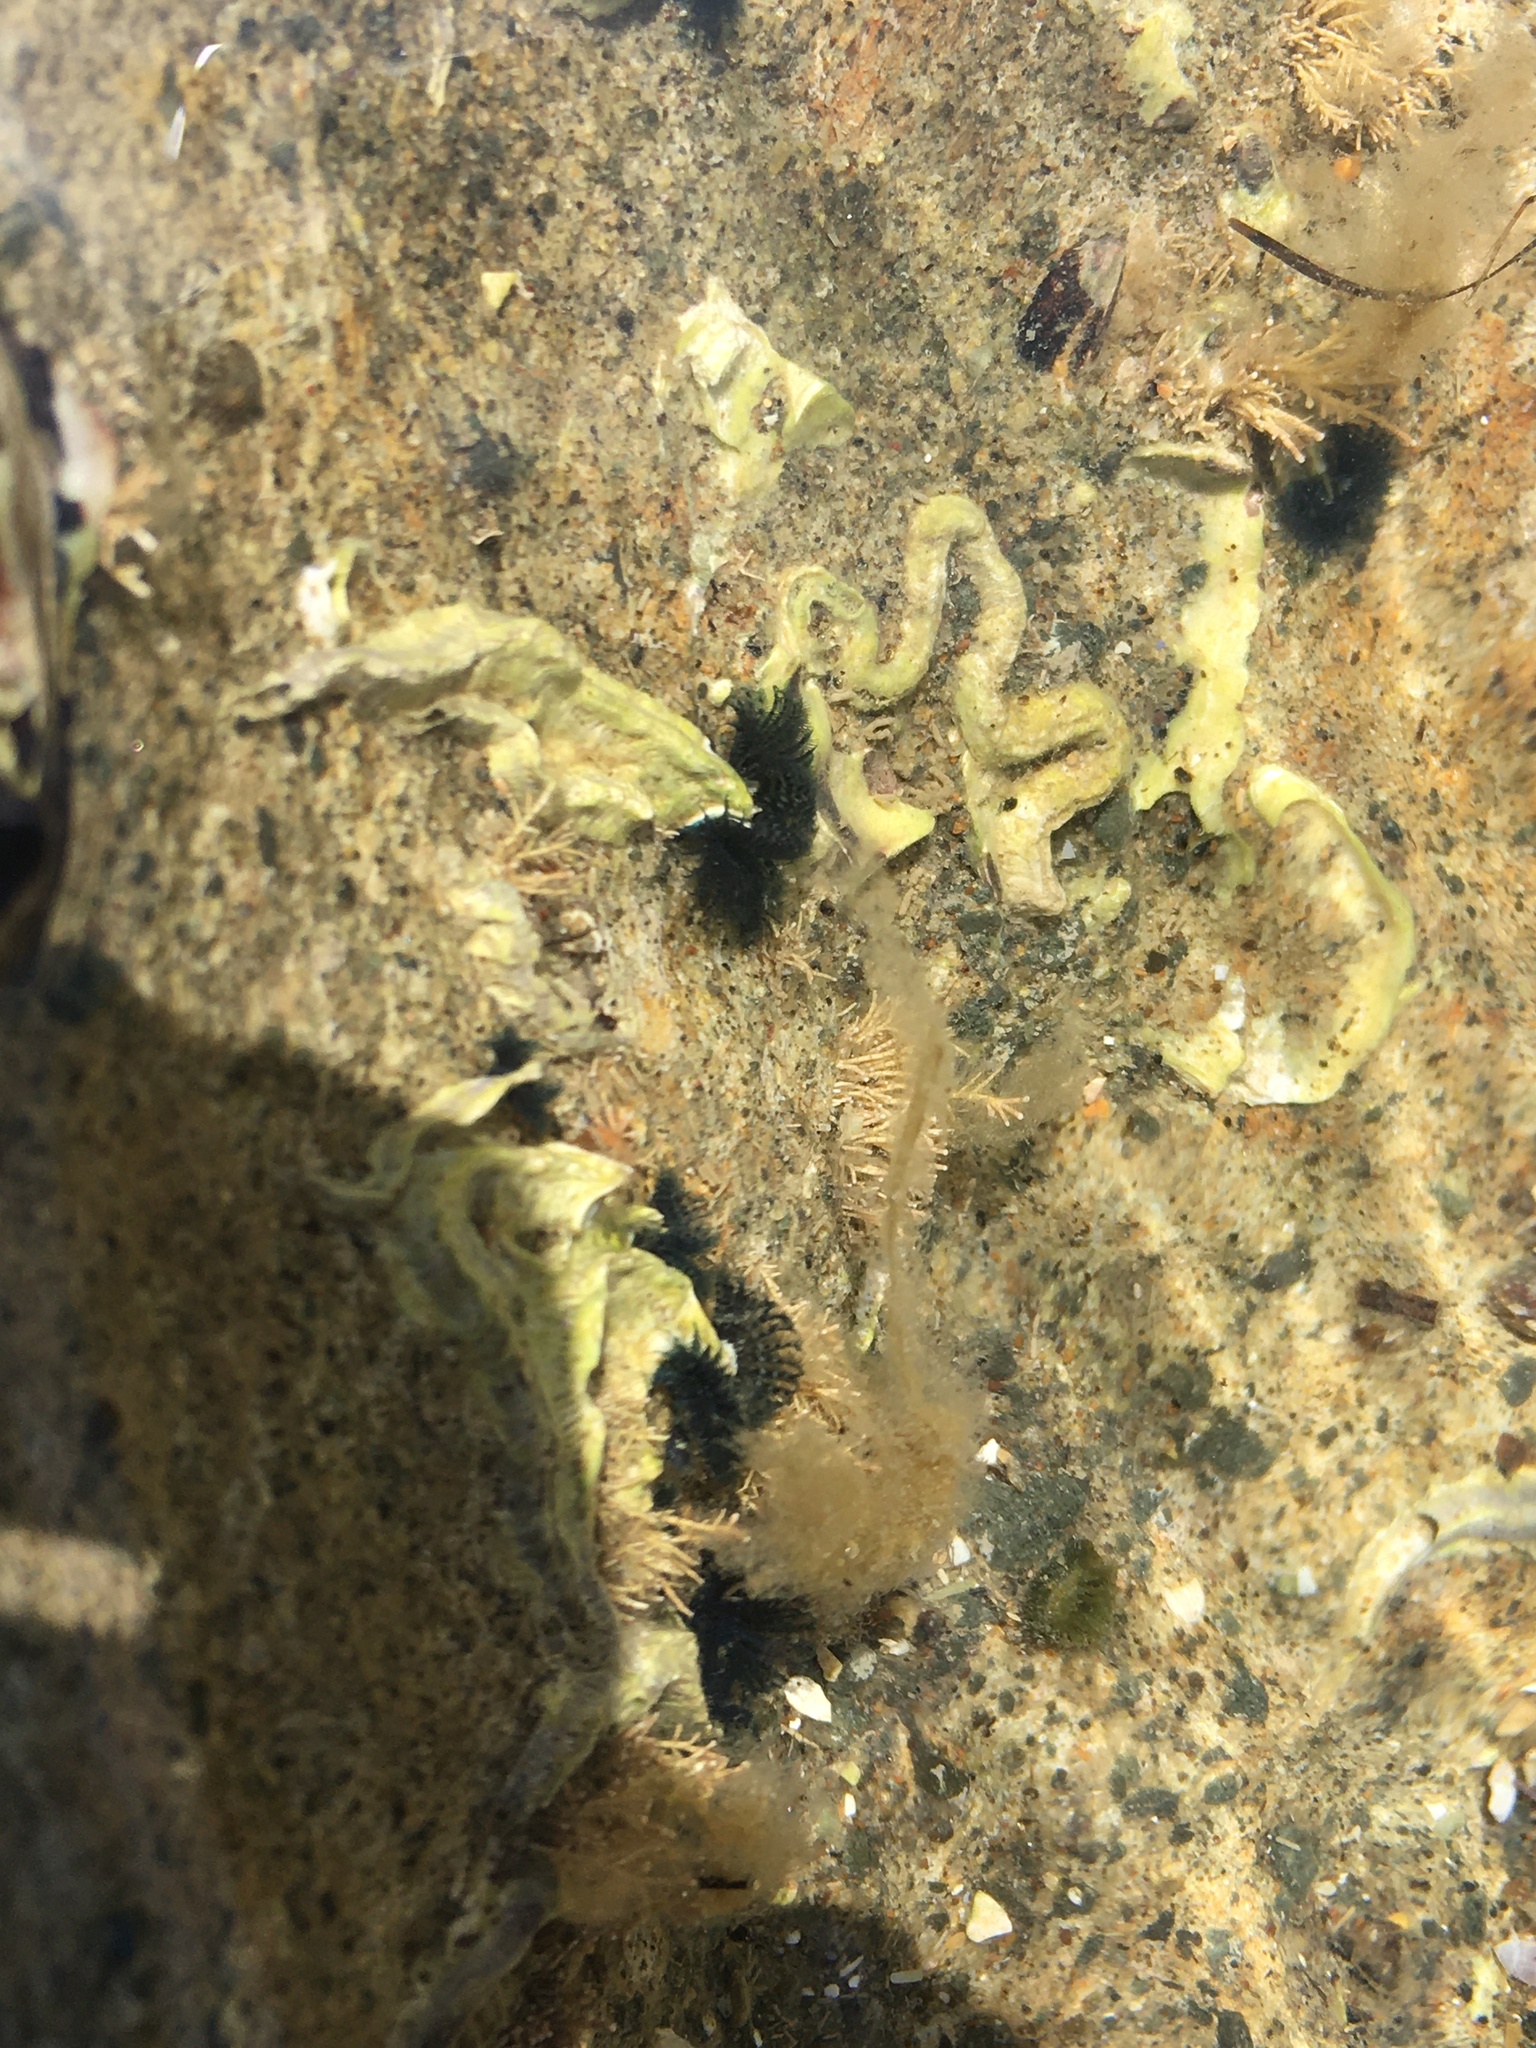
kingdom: Animalia
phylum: Annelida
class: Polychaeta
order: Sabellida
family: Serpulidae
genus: Spirobranchus
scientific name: Spirobranchus cariniferus
